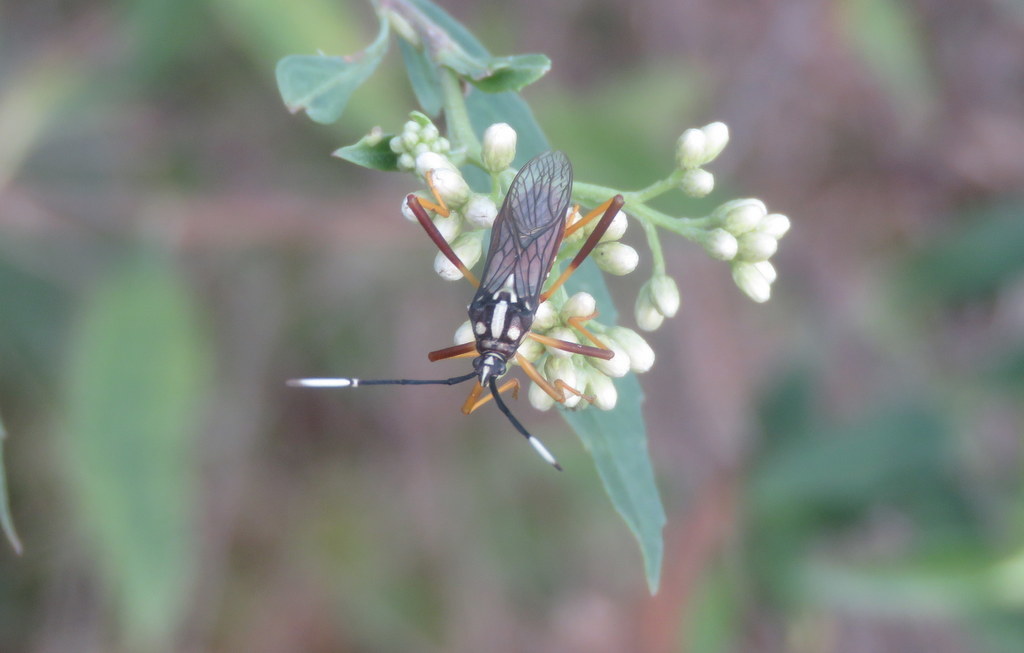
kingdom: Animalia
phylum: Arthropoda
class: Insecta
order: Hemiptera
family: Coreidae
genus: Holhymenia
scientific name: Holhymenia histrio
